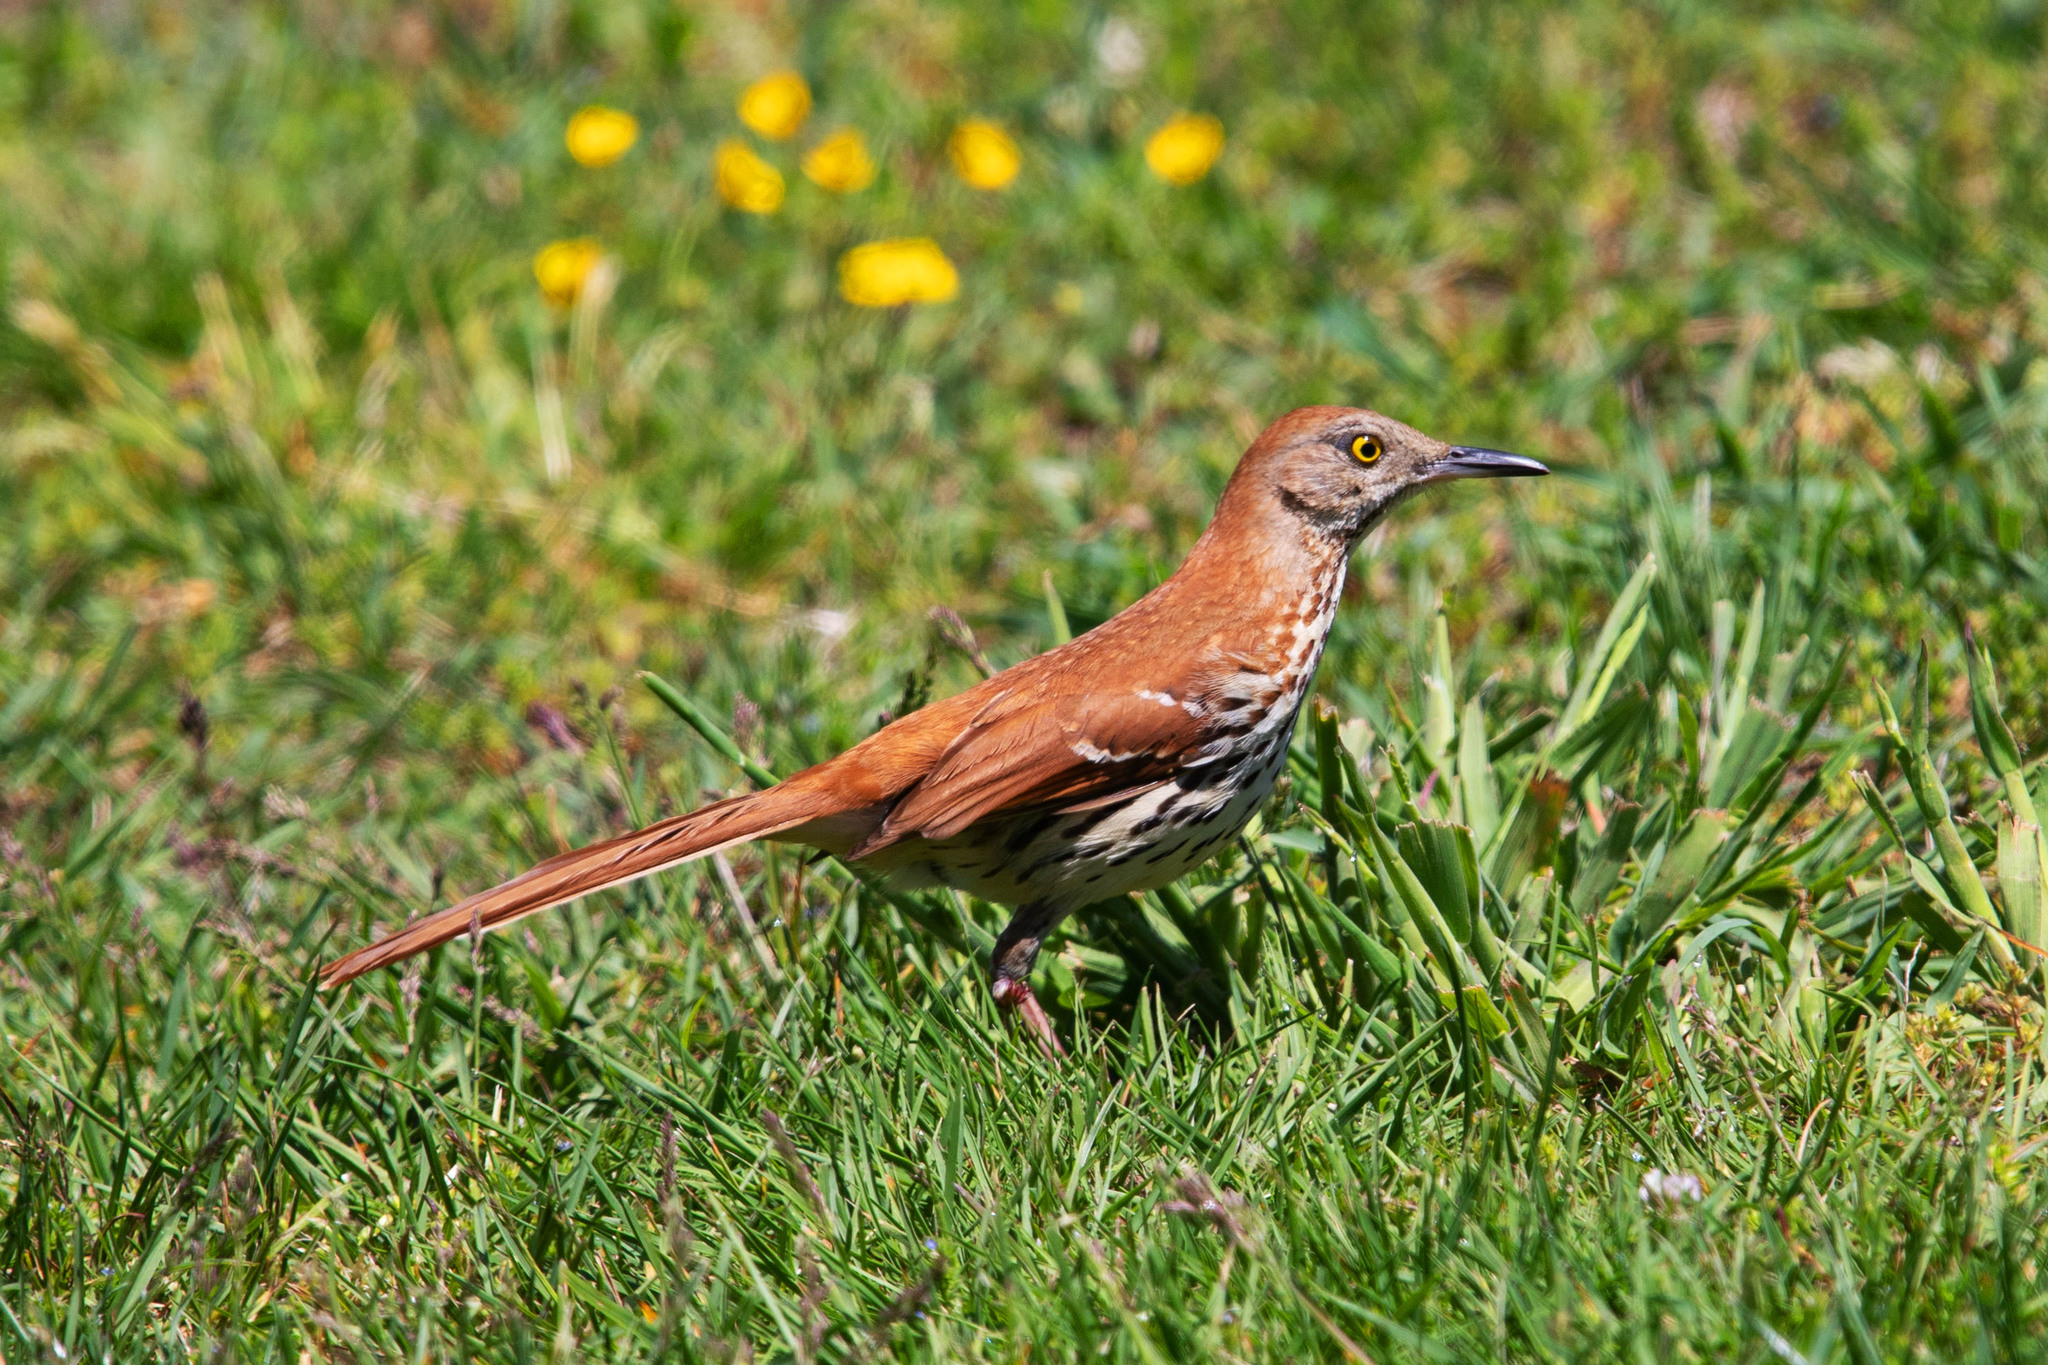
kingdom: Animalia
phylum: Chordata
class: Aves
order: Passeriformes
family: Mimidae
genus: Toxostoma
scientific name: Toxostoma rufum
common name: Brown thrasher
